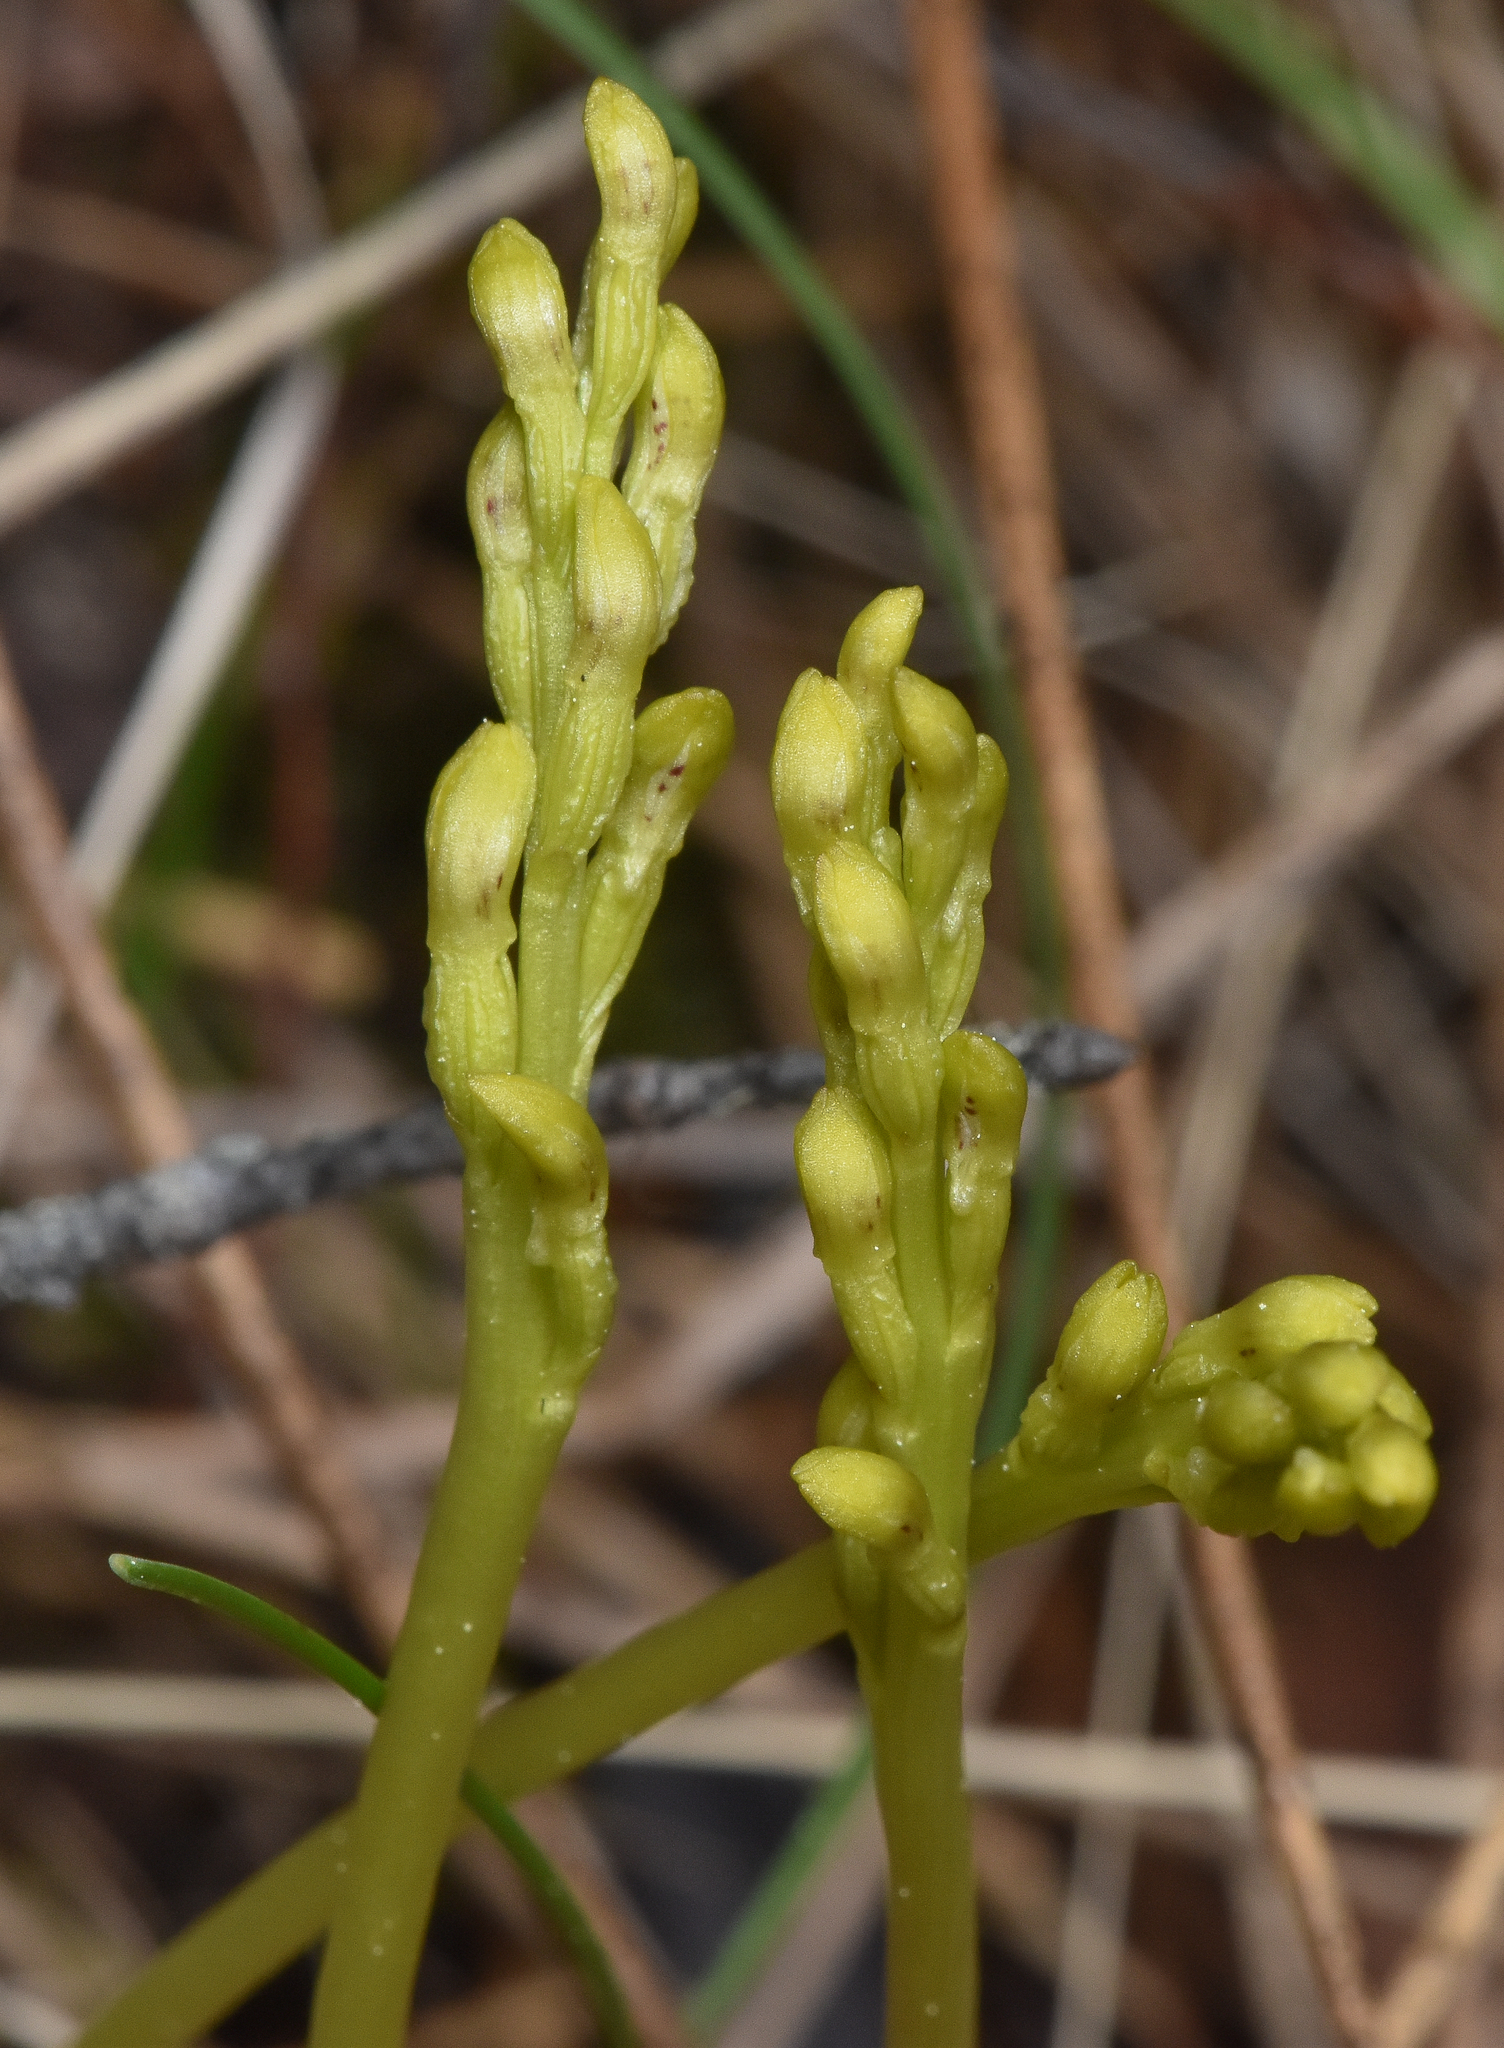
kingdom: Plantae
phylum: Tracheophyta
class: Liliopsida
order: Asparagales
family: Orchidaceae
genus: Corallorhiza
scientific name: Corallorhiza trifida
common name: Yellow coralroot
